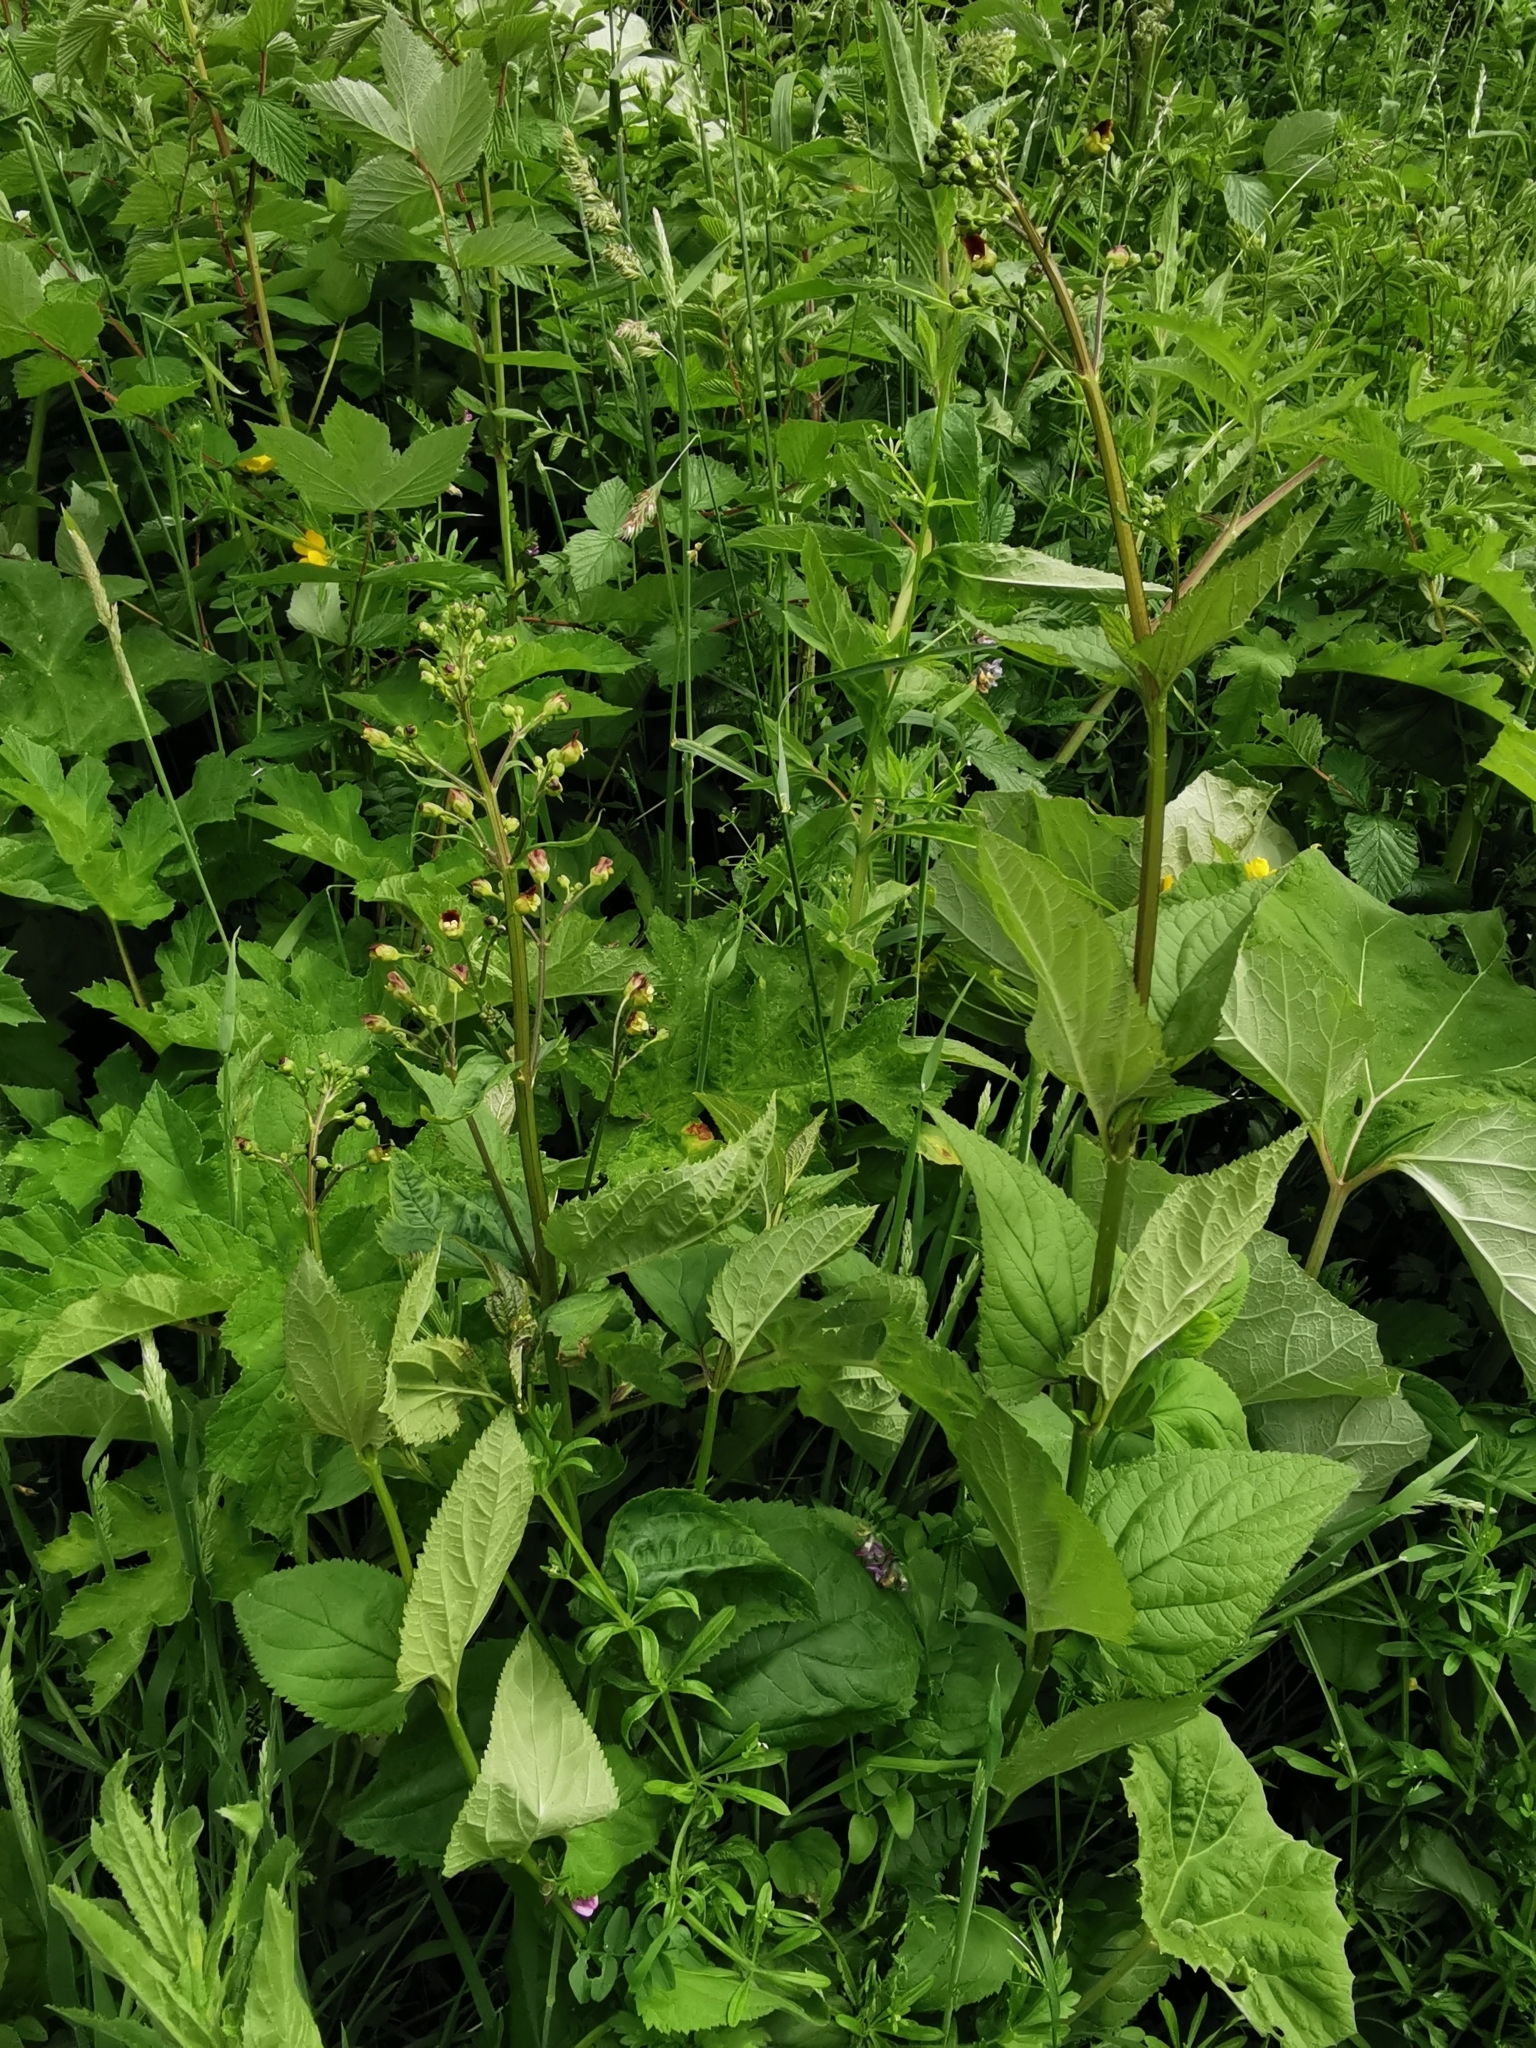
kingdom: Plantae
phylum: Tracheophyta
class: Magnoliopsida
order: Lamiales
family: Scrophulariaceae
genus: Scrophularia
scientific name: Scrophularia auriculata
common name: Water betony
